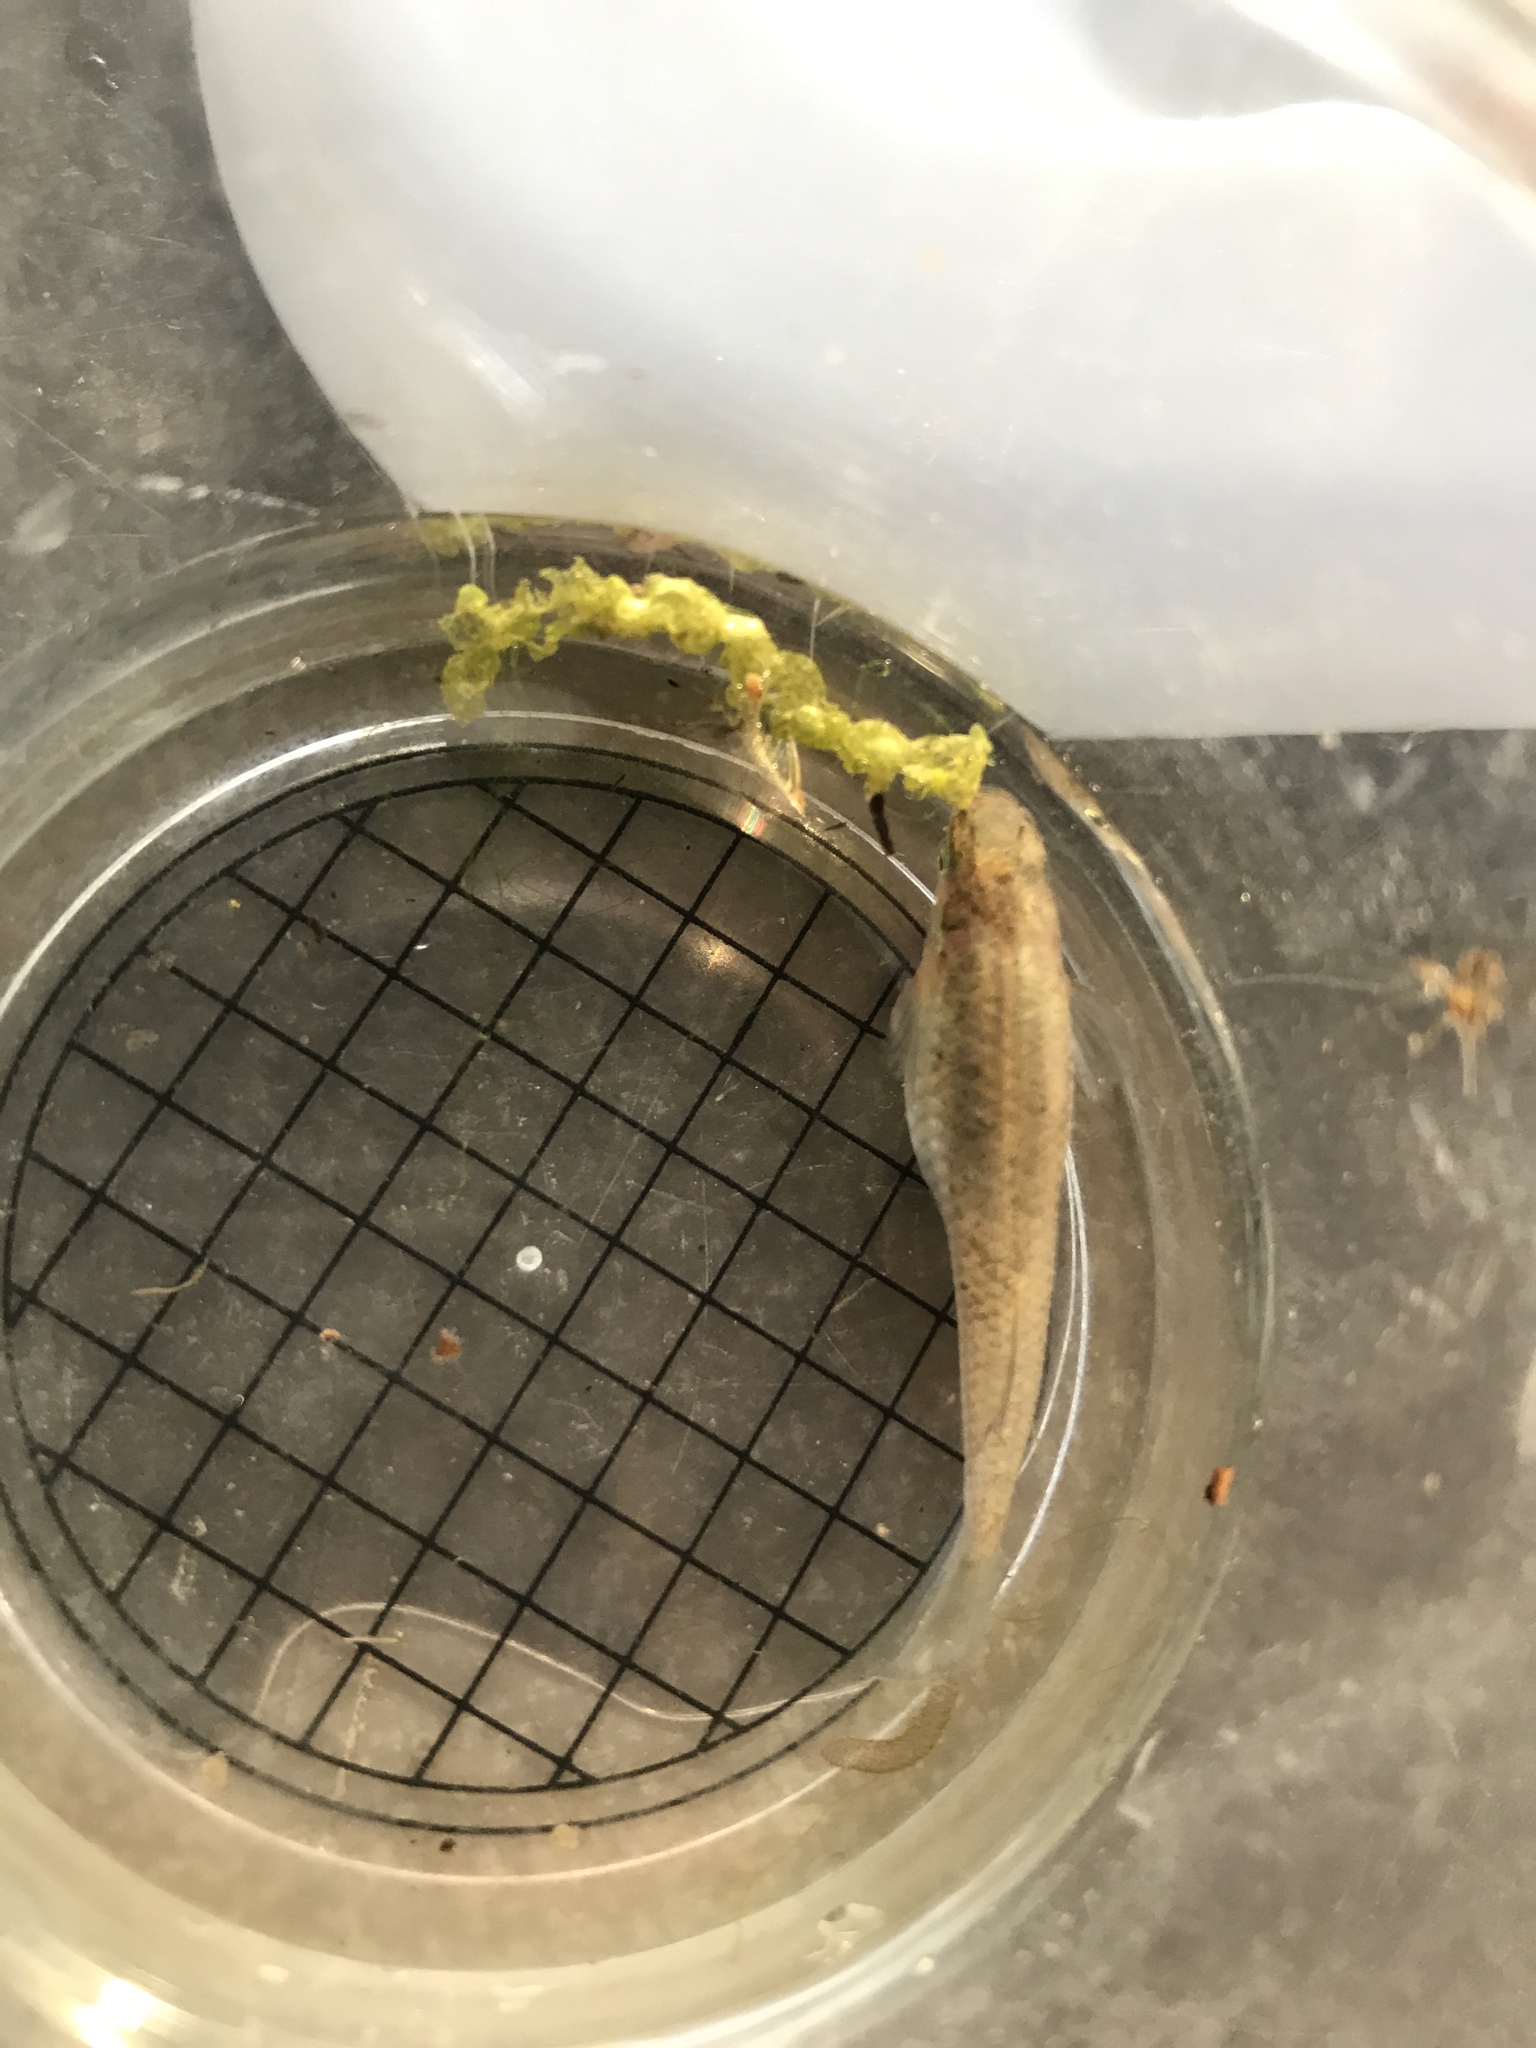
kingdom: Animalia
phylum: Chordata
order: Cyprinodontiformes
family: Poeciliidae
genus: Gambusia
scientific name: Gambusia affinis
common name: Mosquitofish
